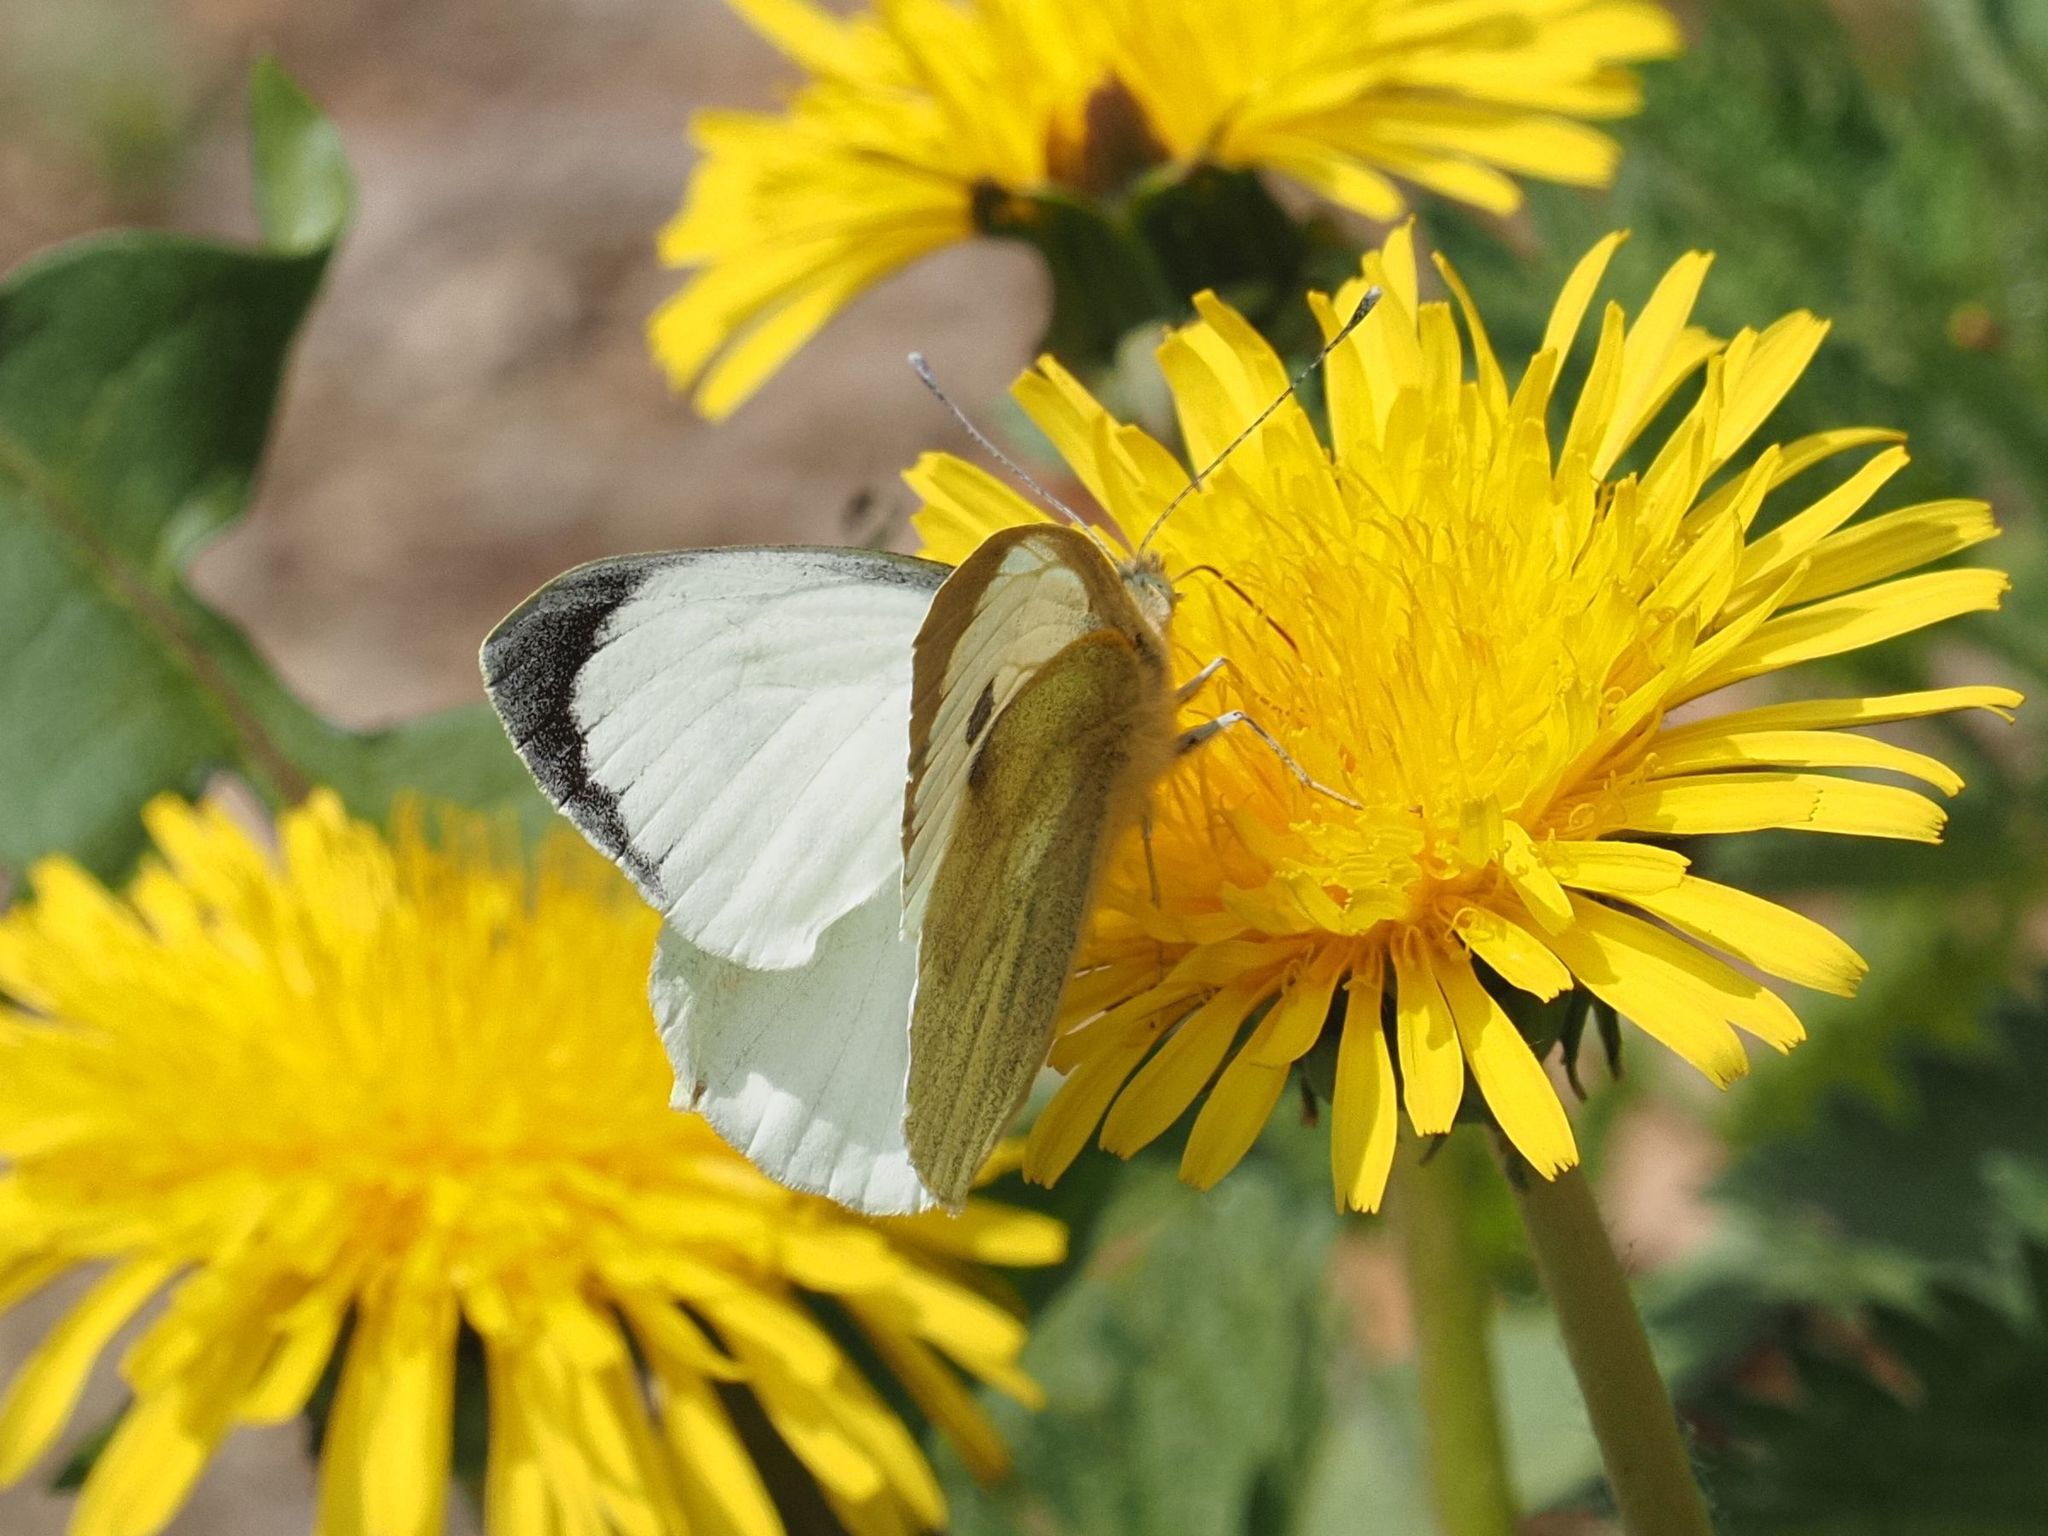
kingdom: Animalia
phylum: Arthropoda
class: Insecta
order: Lepidoptera
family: Pieridae
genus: Pieris
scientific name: Pieris brassicae
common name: Large white
